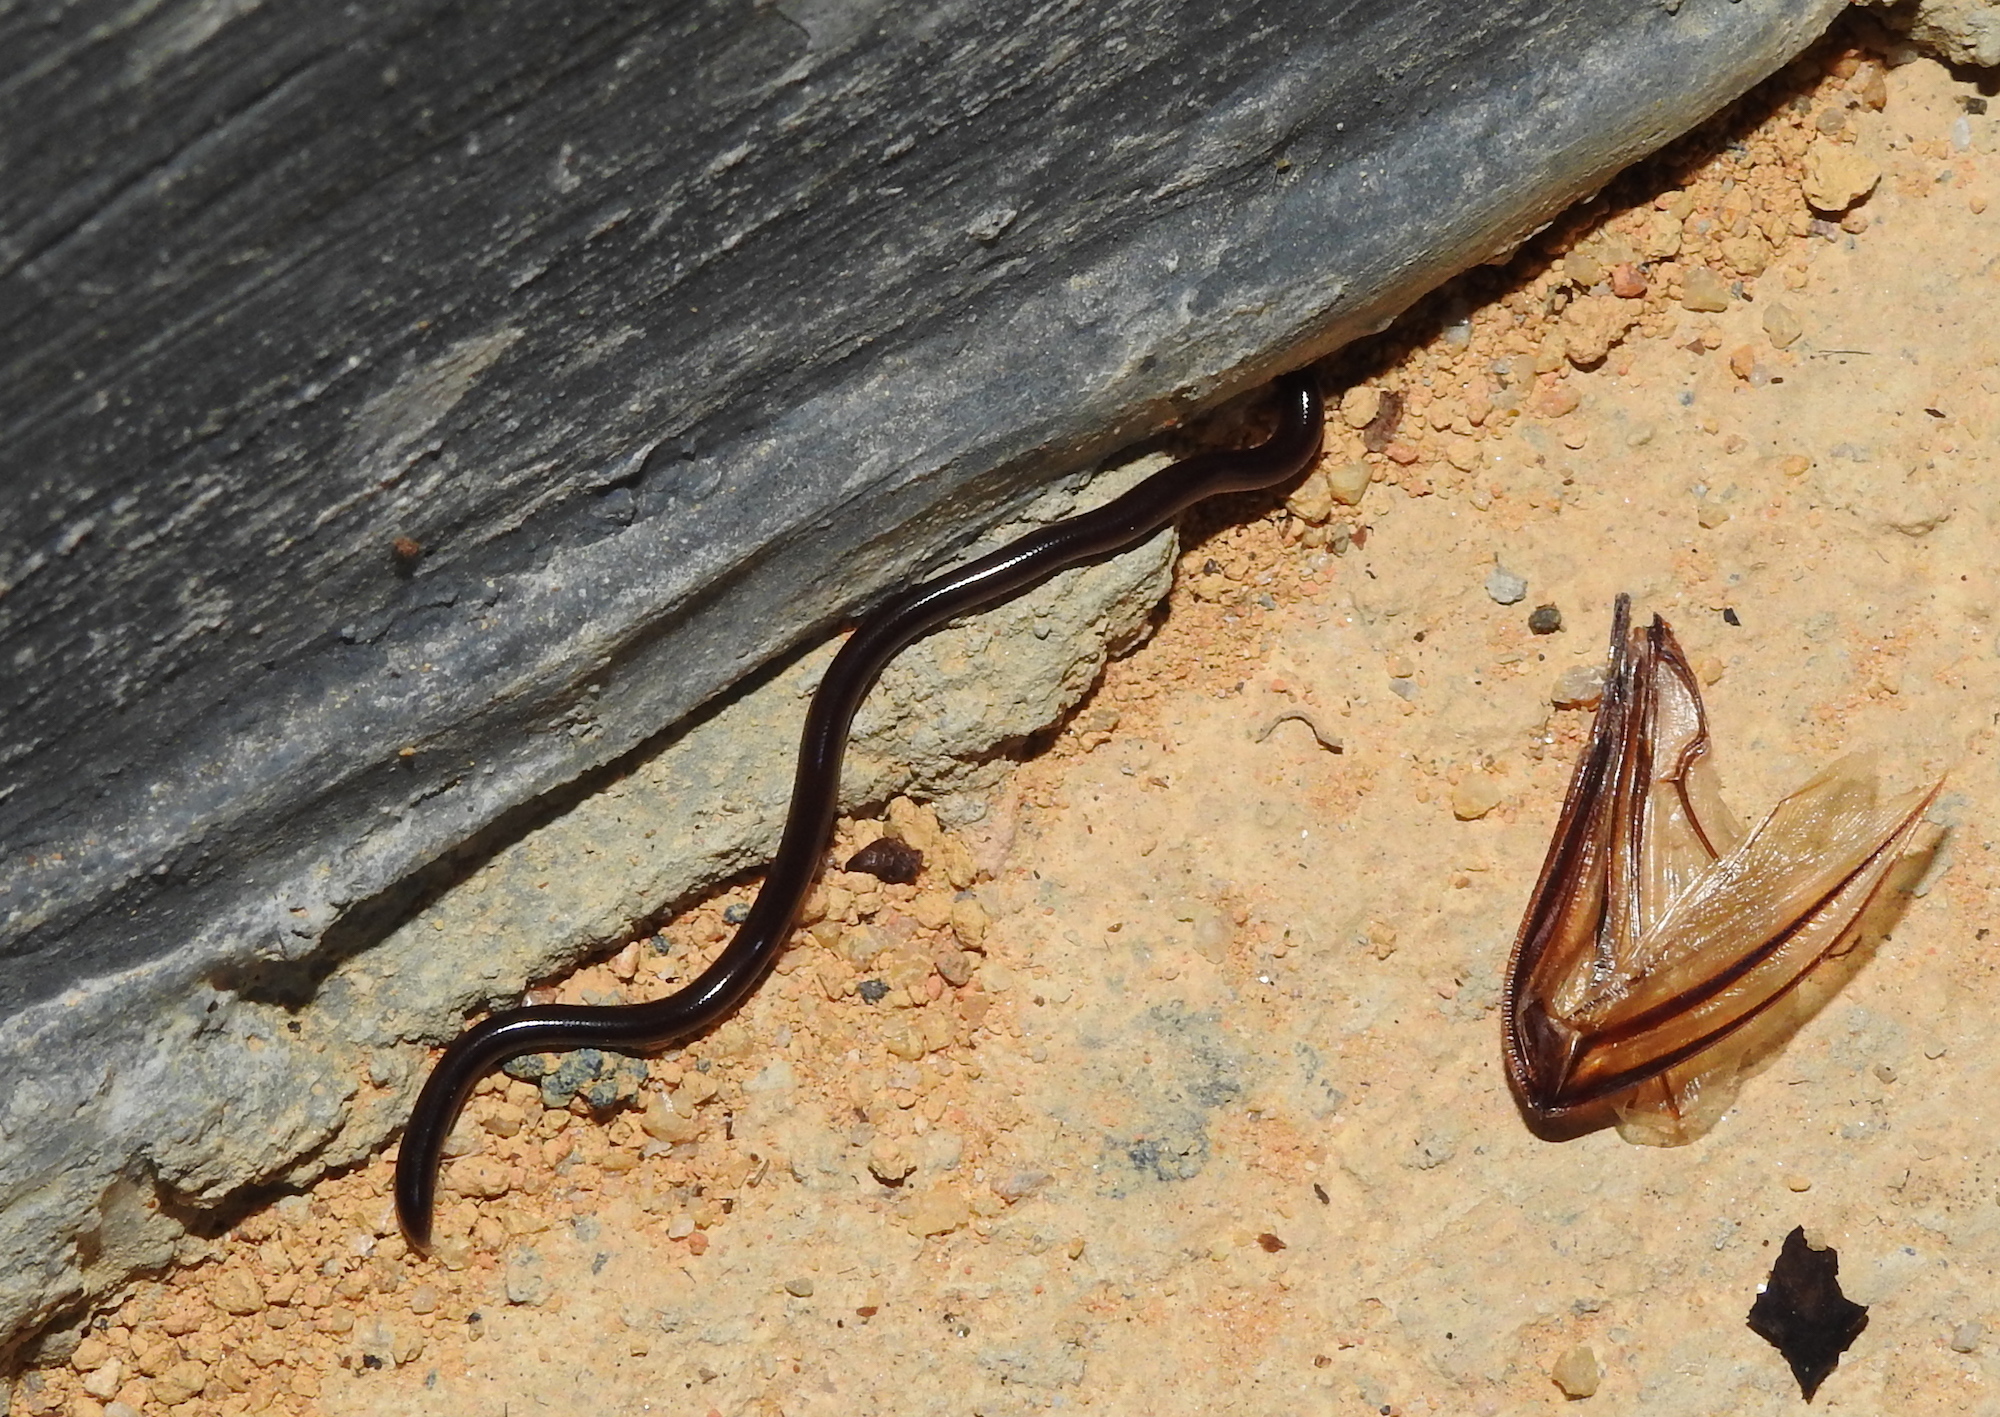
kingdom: Animalia
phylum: Chordata
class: Squamata
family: Typhlopidae
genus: Indotyphlops
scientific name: Indotyphlops braminus
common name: Brahminy blindsnake
